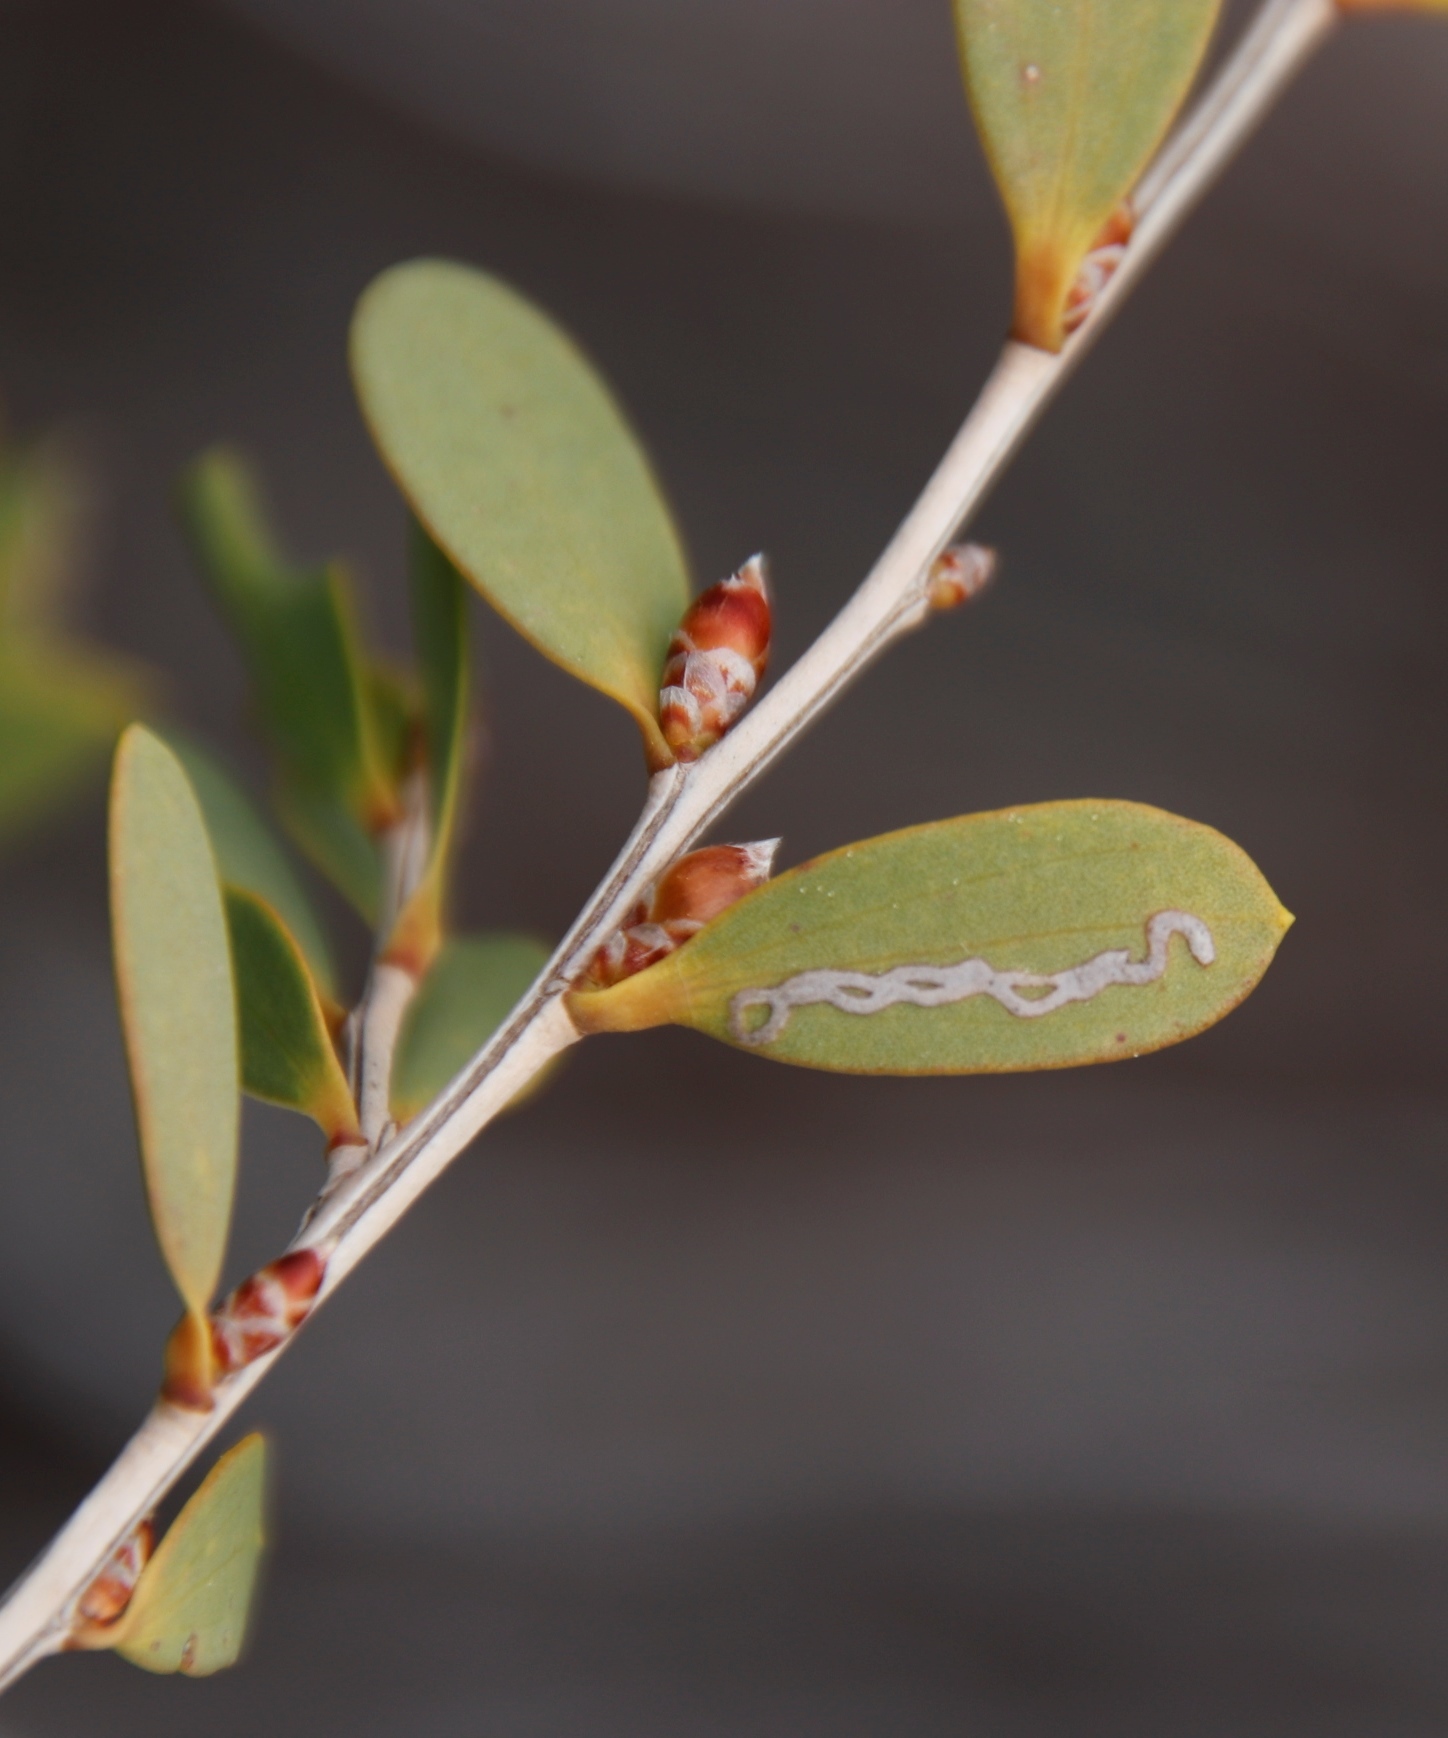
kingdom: Animalia
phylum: Arthropoda
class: Insecta
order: Lepidoptera
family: Gracillariidae
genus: Aristaea
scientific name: Aristaea thalassias
